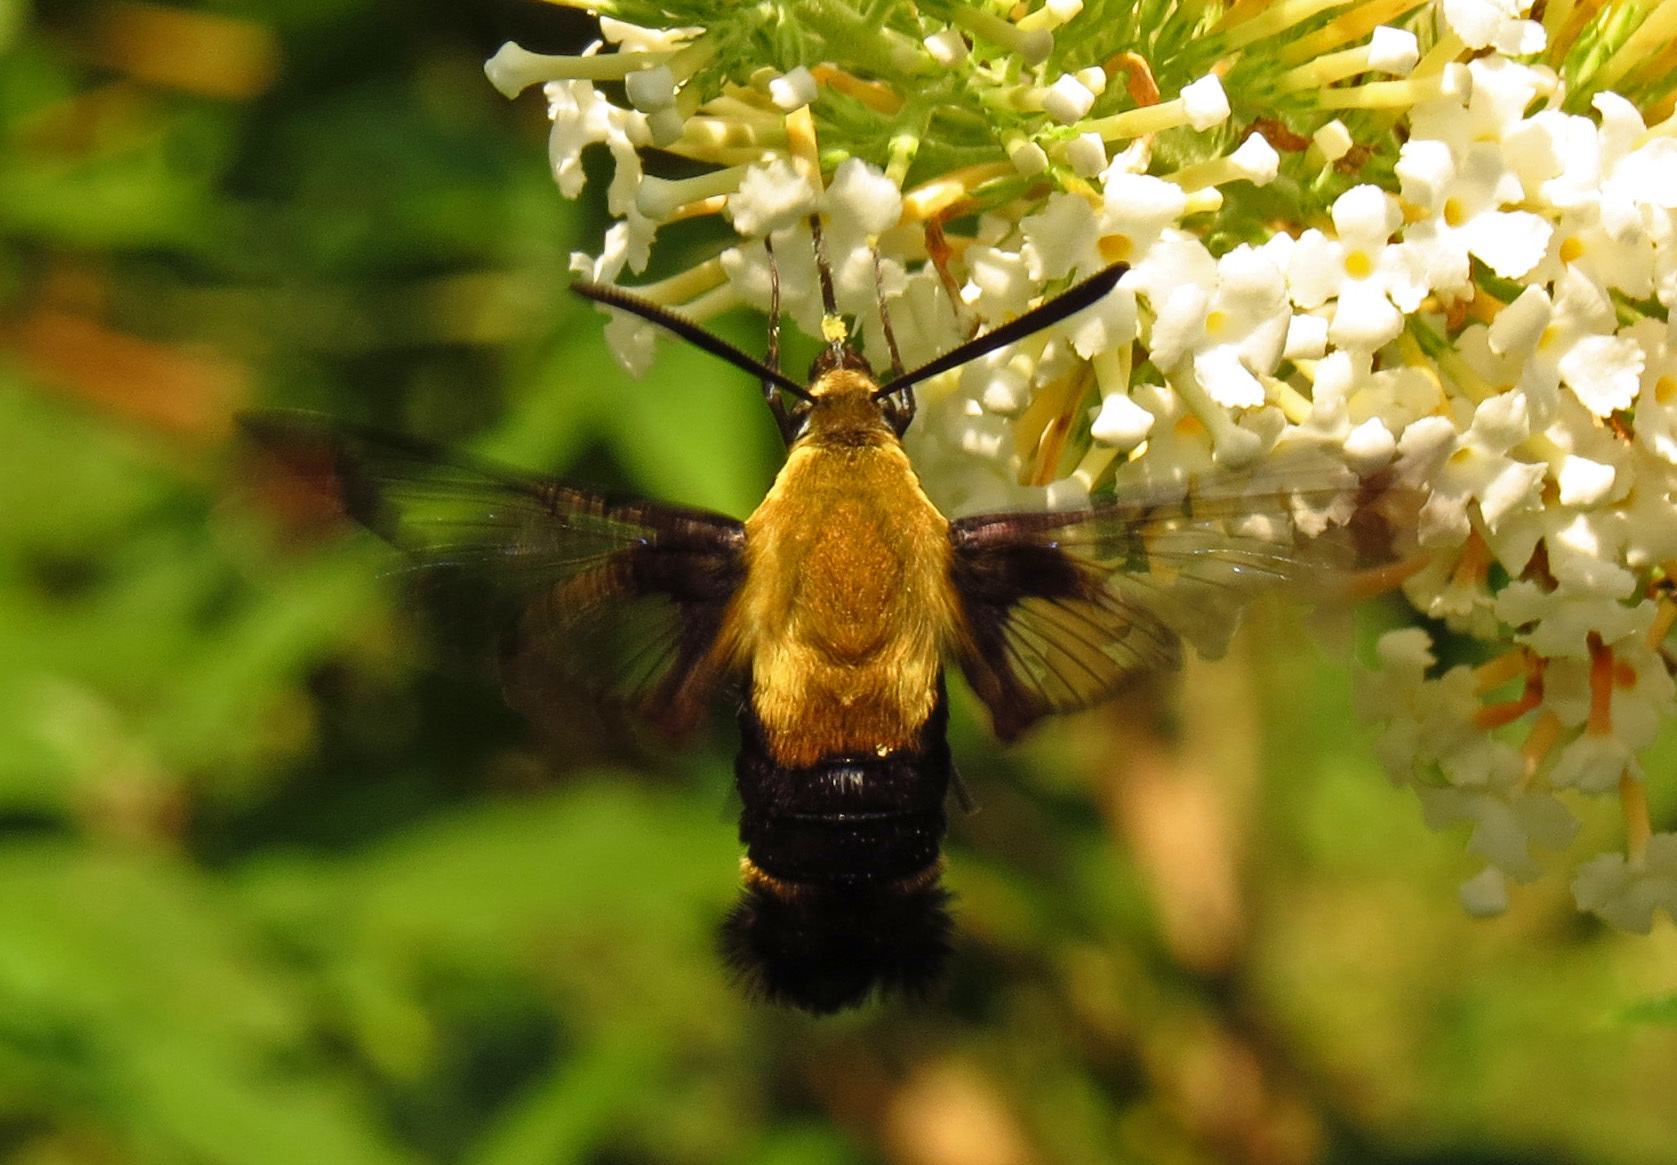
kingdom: Animalia
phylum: Arthropoda
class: Insecta
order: Lepidoptera
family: Sphingidae
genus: Hemaris
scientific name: Hemaris diffinis
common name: Bumblebee moth
